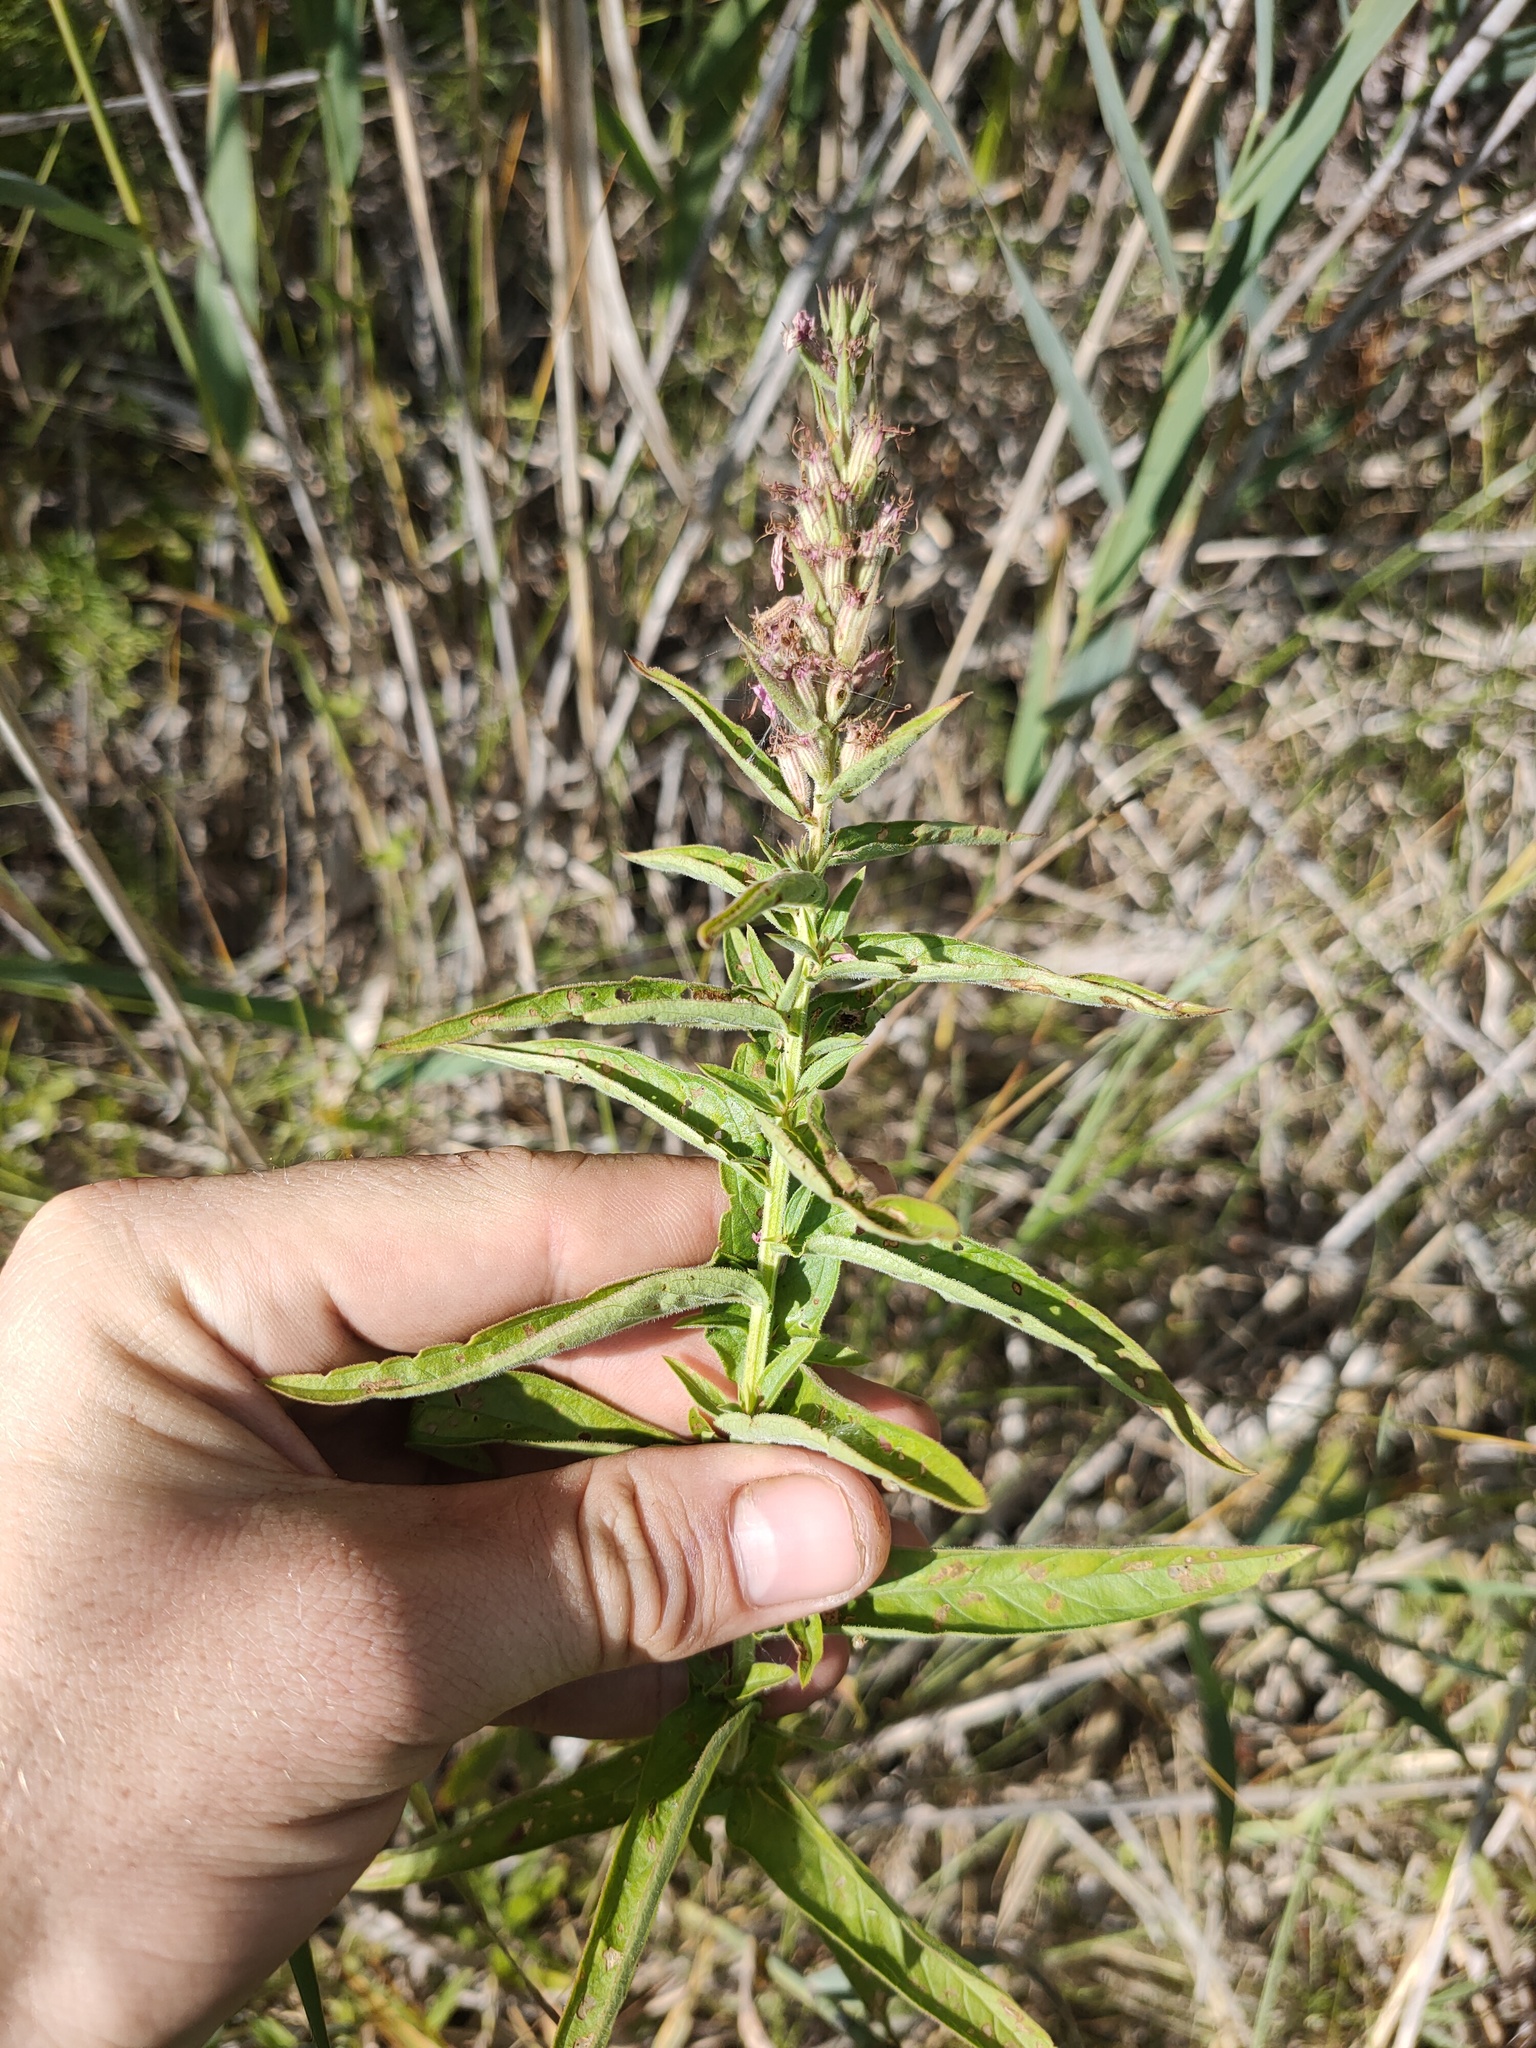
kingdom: Plantae
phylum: Tracheophyta
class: Magnoliopsida
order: Myrtales
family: Lythraceae
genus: Lythrum
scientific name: Lythrum salicaria
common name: Purple loosestrife
